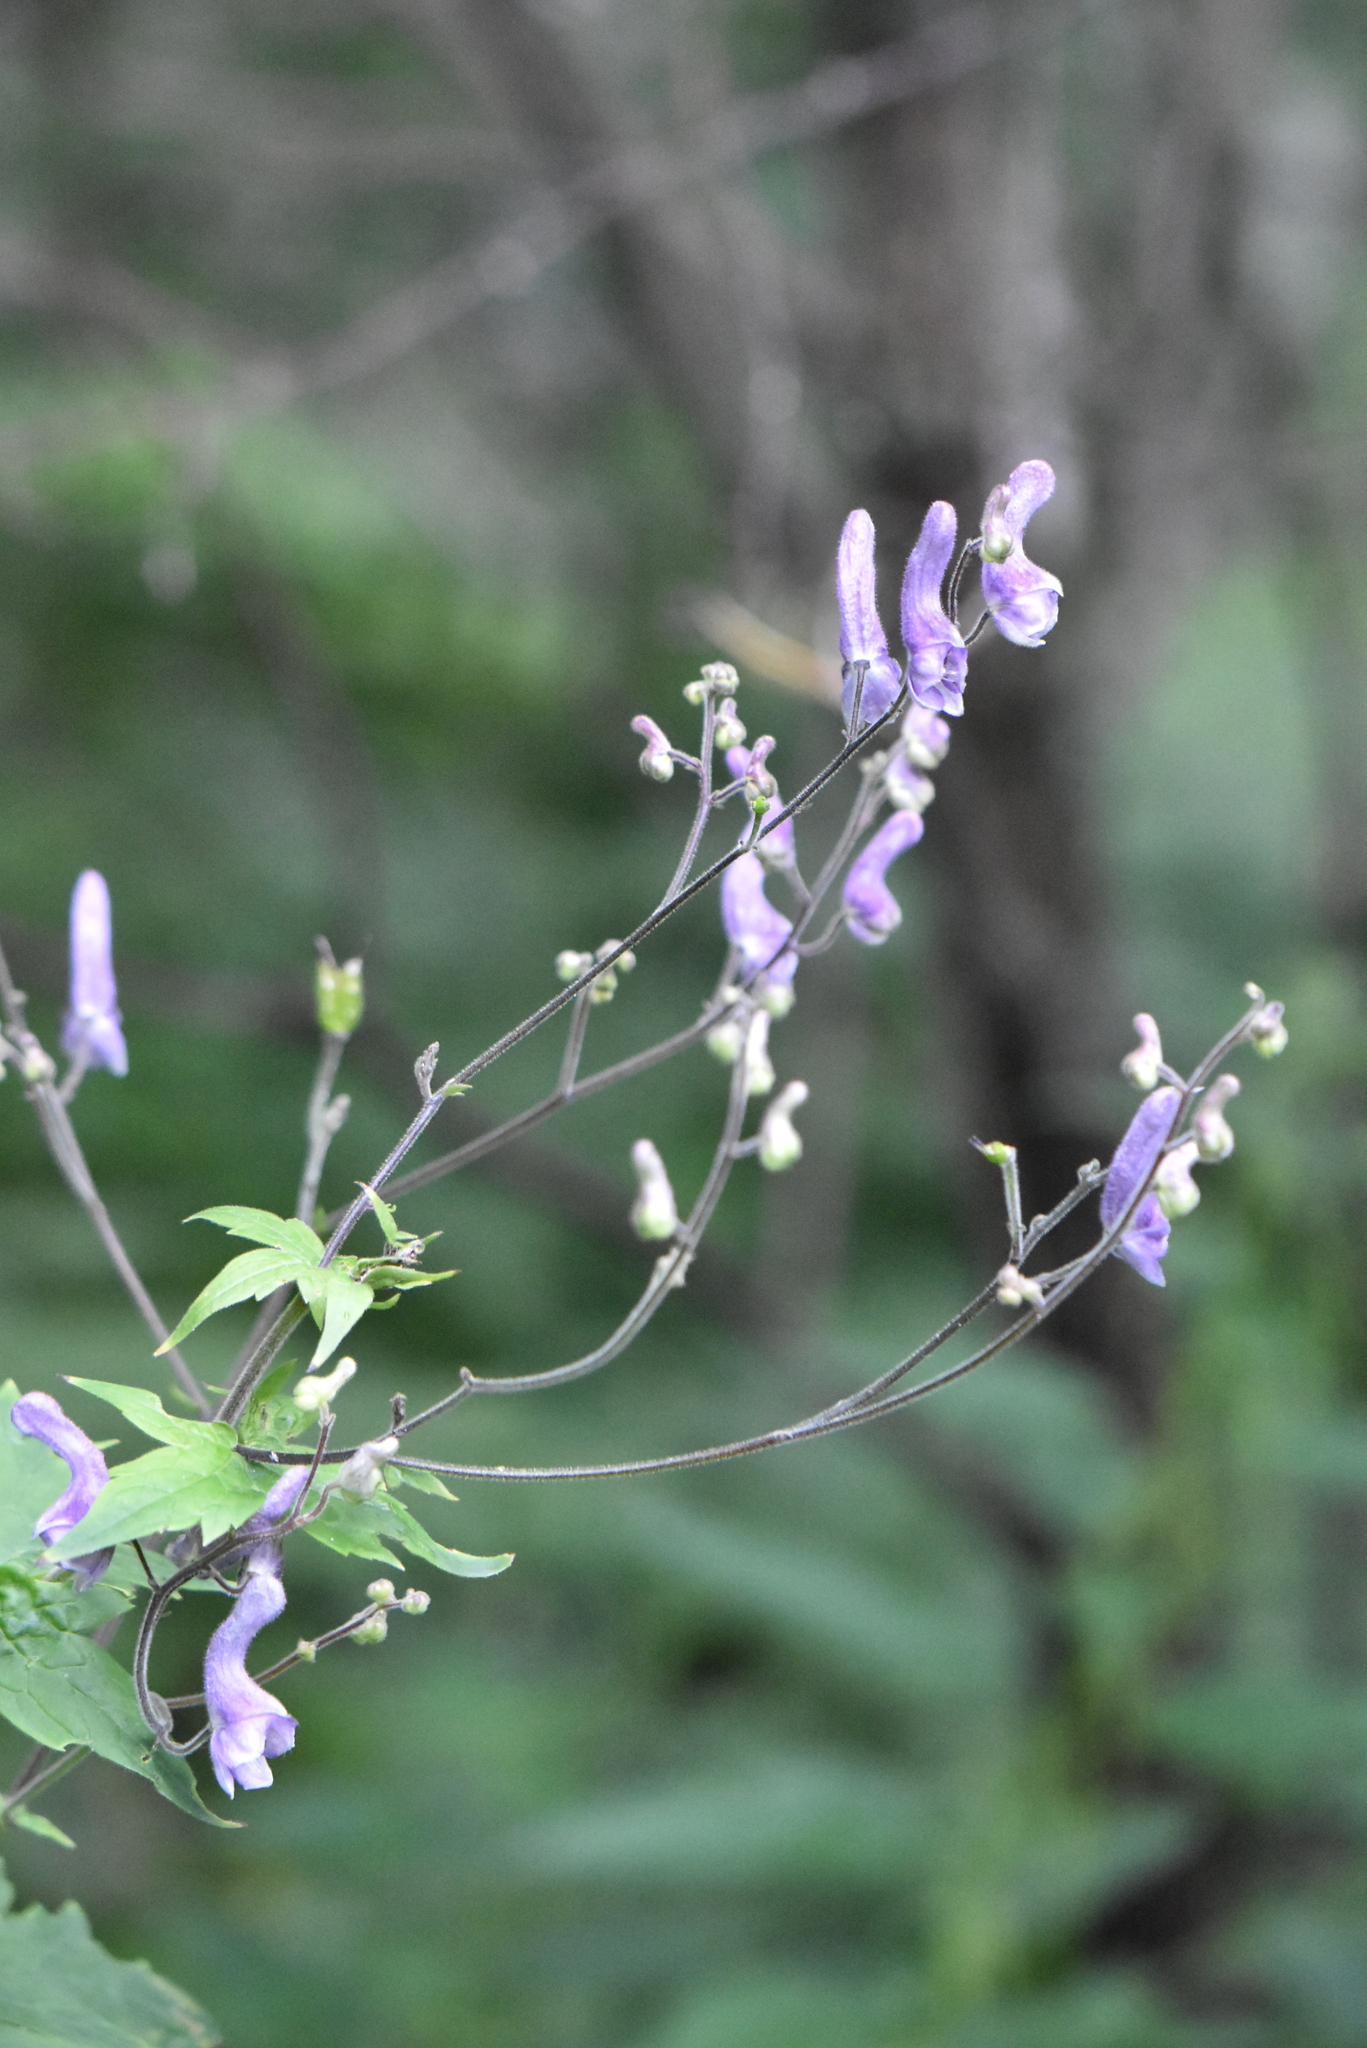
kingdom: Plantae
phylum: Tracheophyta
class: Magnoliopsida
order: Ranunculales
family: Ranunculaceae
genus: Aconitum
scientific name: Aconitum septentrionale
